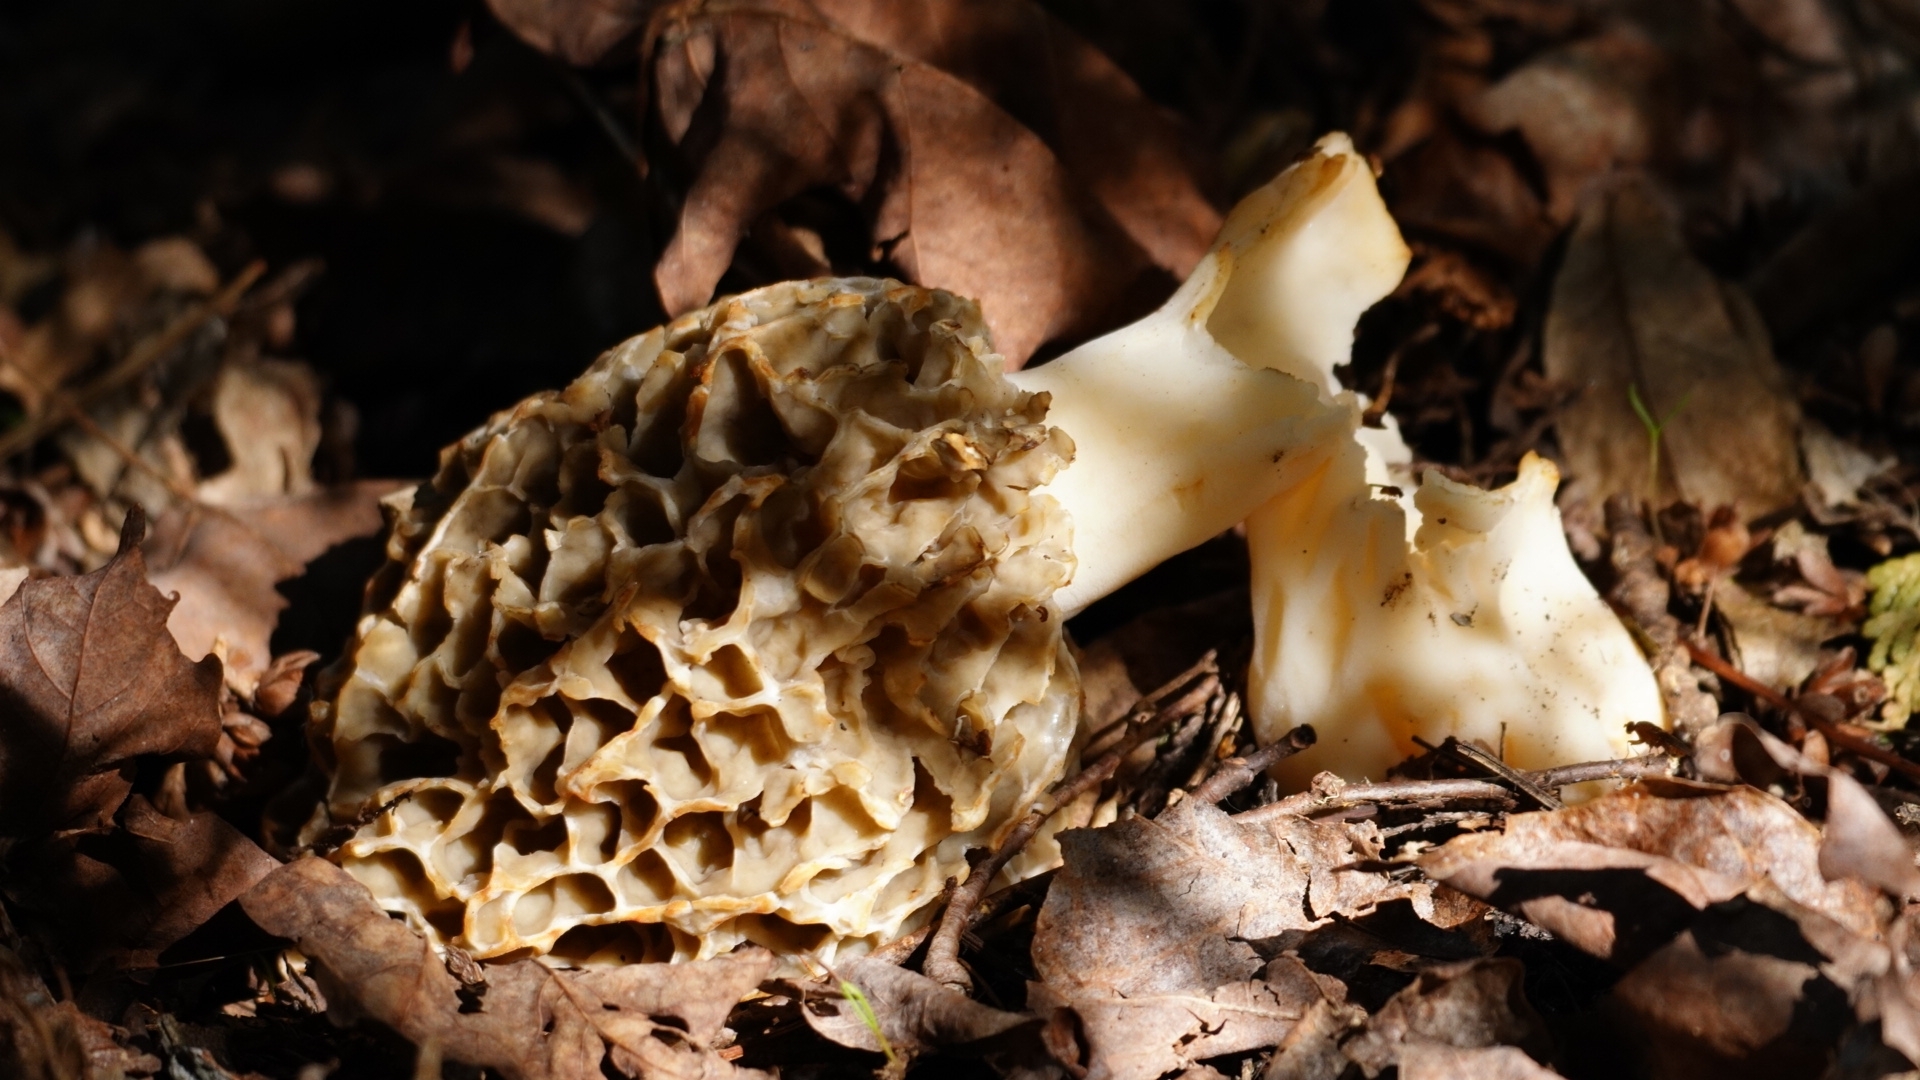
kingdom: Fungi
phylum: Ascomycota
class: Pezizomycetes
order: Pezizales
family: Morchellaceae
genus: Morchella
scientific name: Morchella americana
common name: White morel
